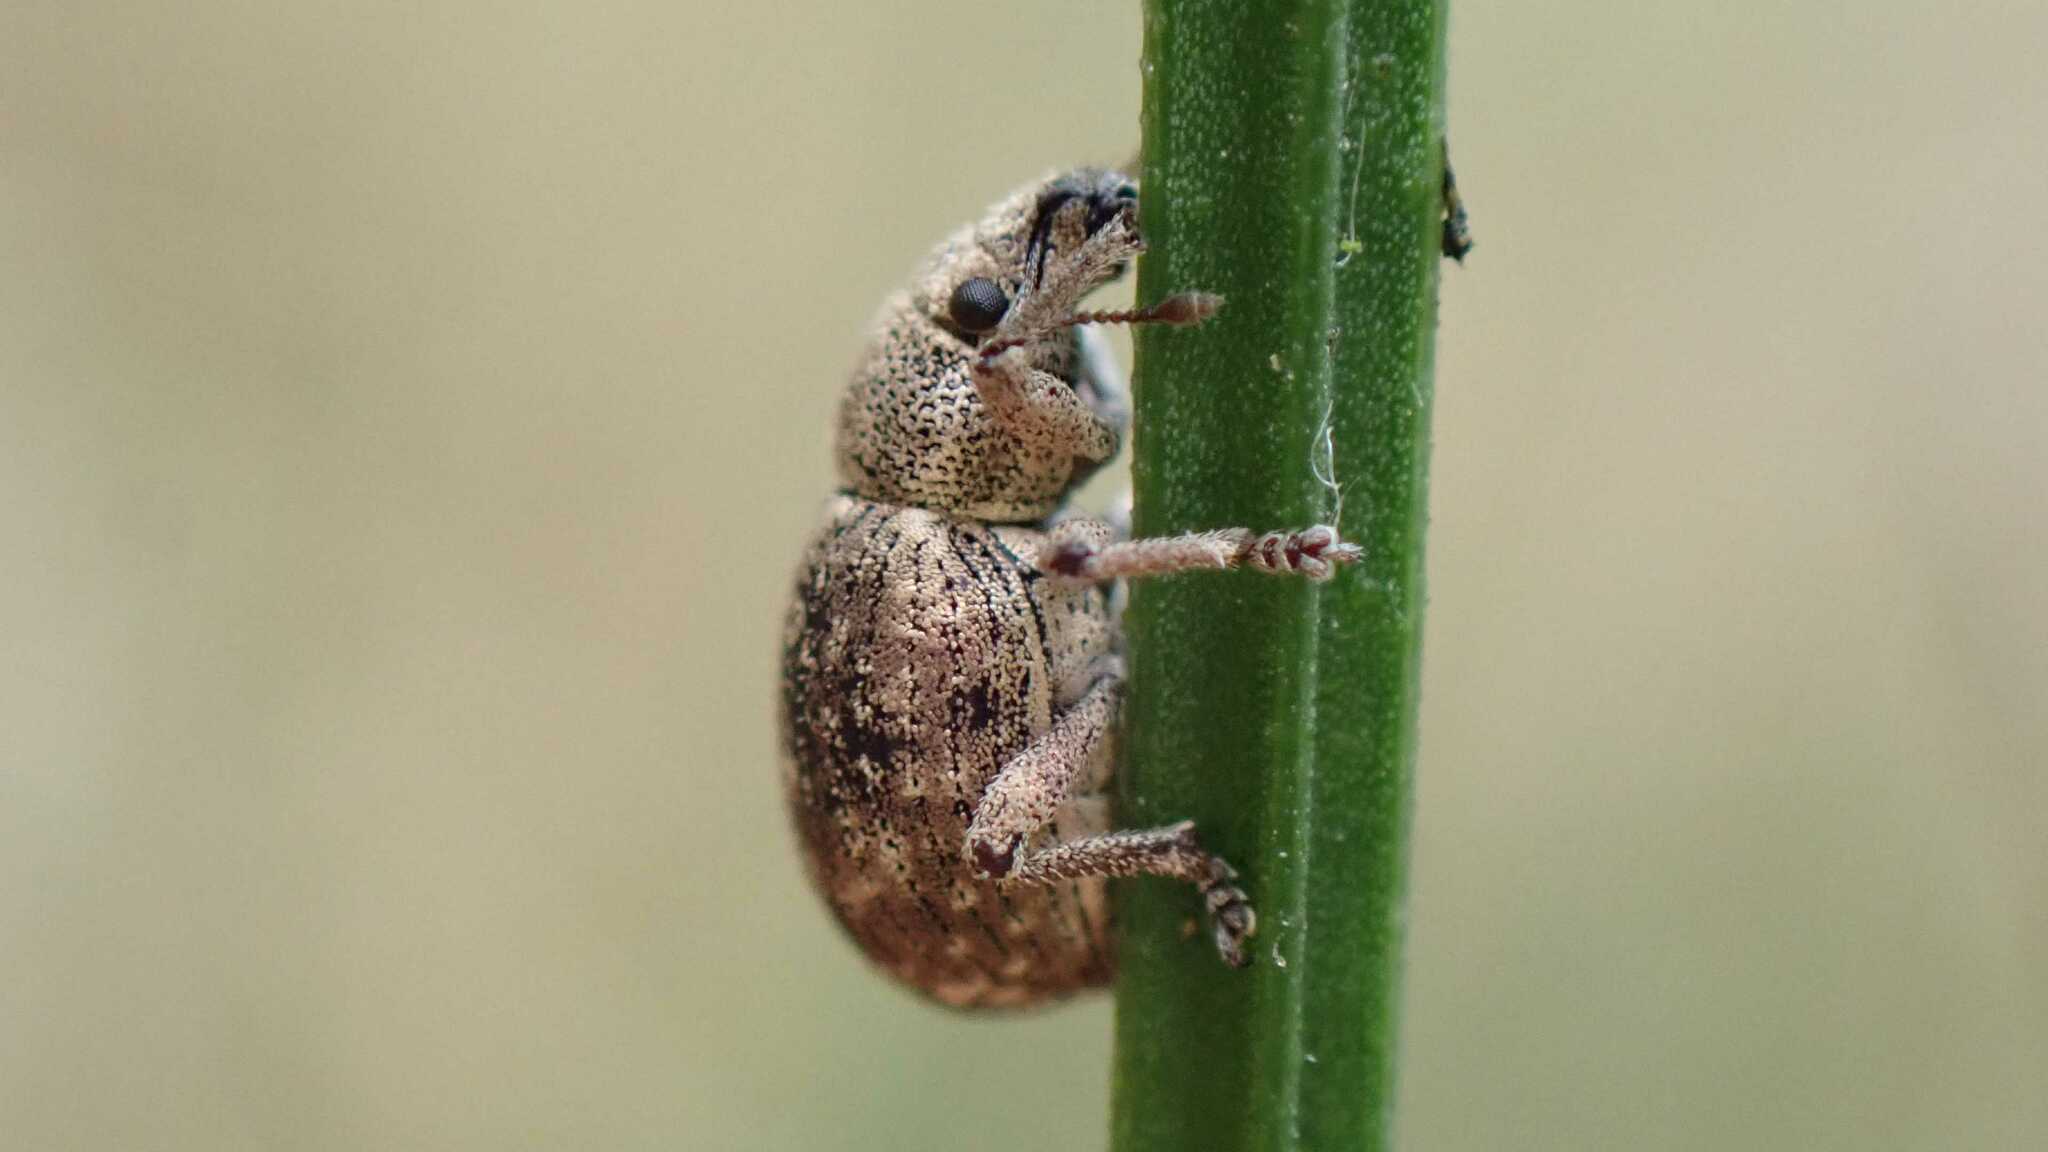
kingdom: Animalia
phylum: Arthropoda
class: Insecta
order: Coleoptera
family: Curculionidae
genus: Strophosoma
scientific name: Strophosoma capitatum
